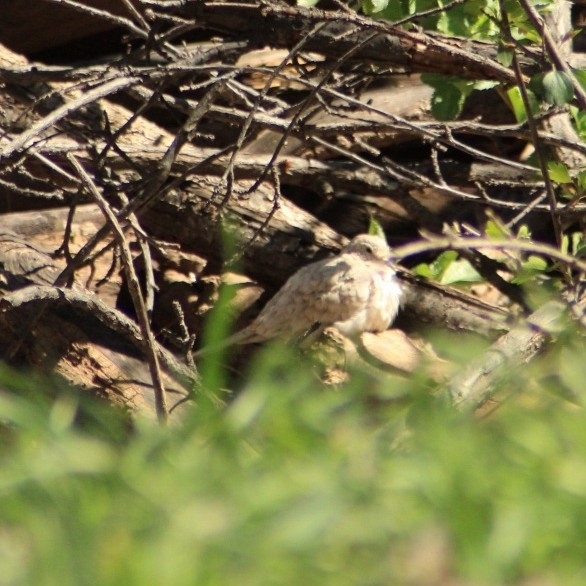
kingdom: Animalia
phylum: Chordata
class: Aves
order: Columbiformes
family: Columbidae
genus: Columbina
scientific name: Columbina inca
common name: Inca dove
